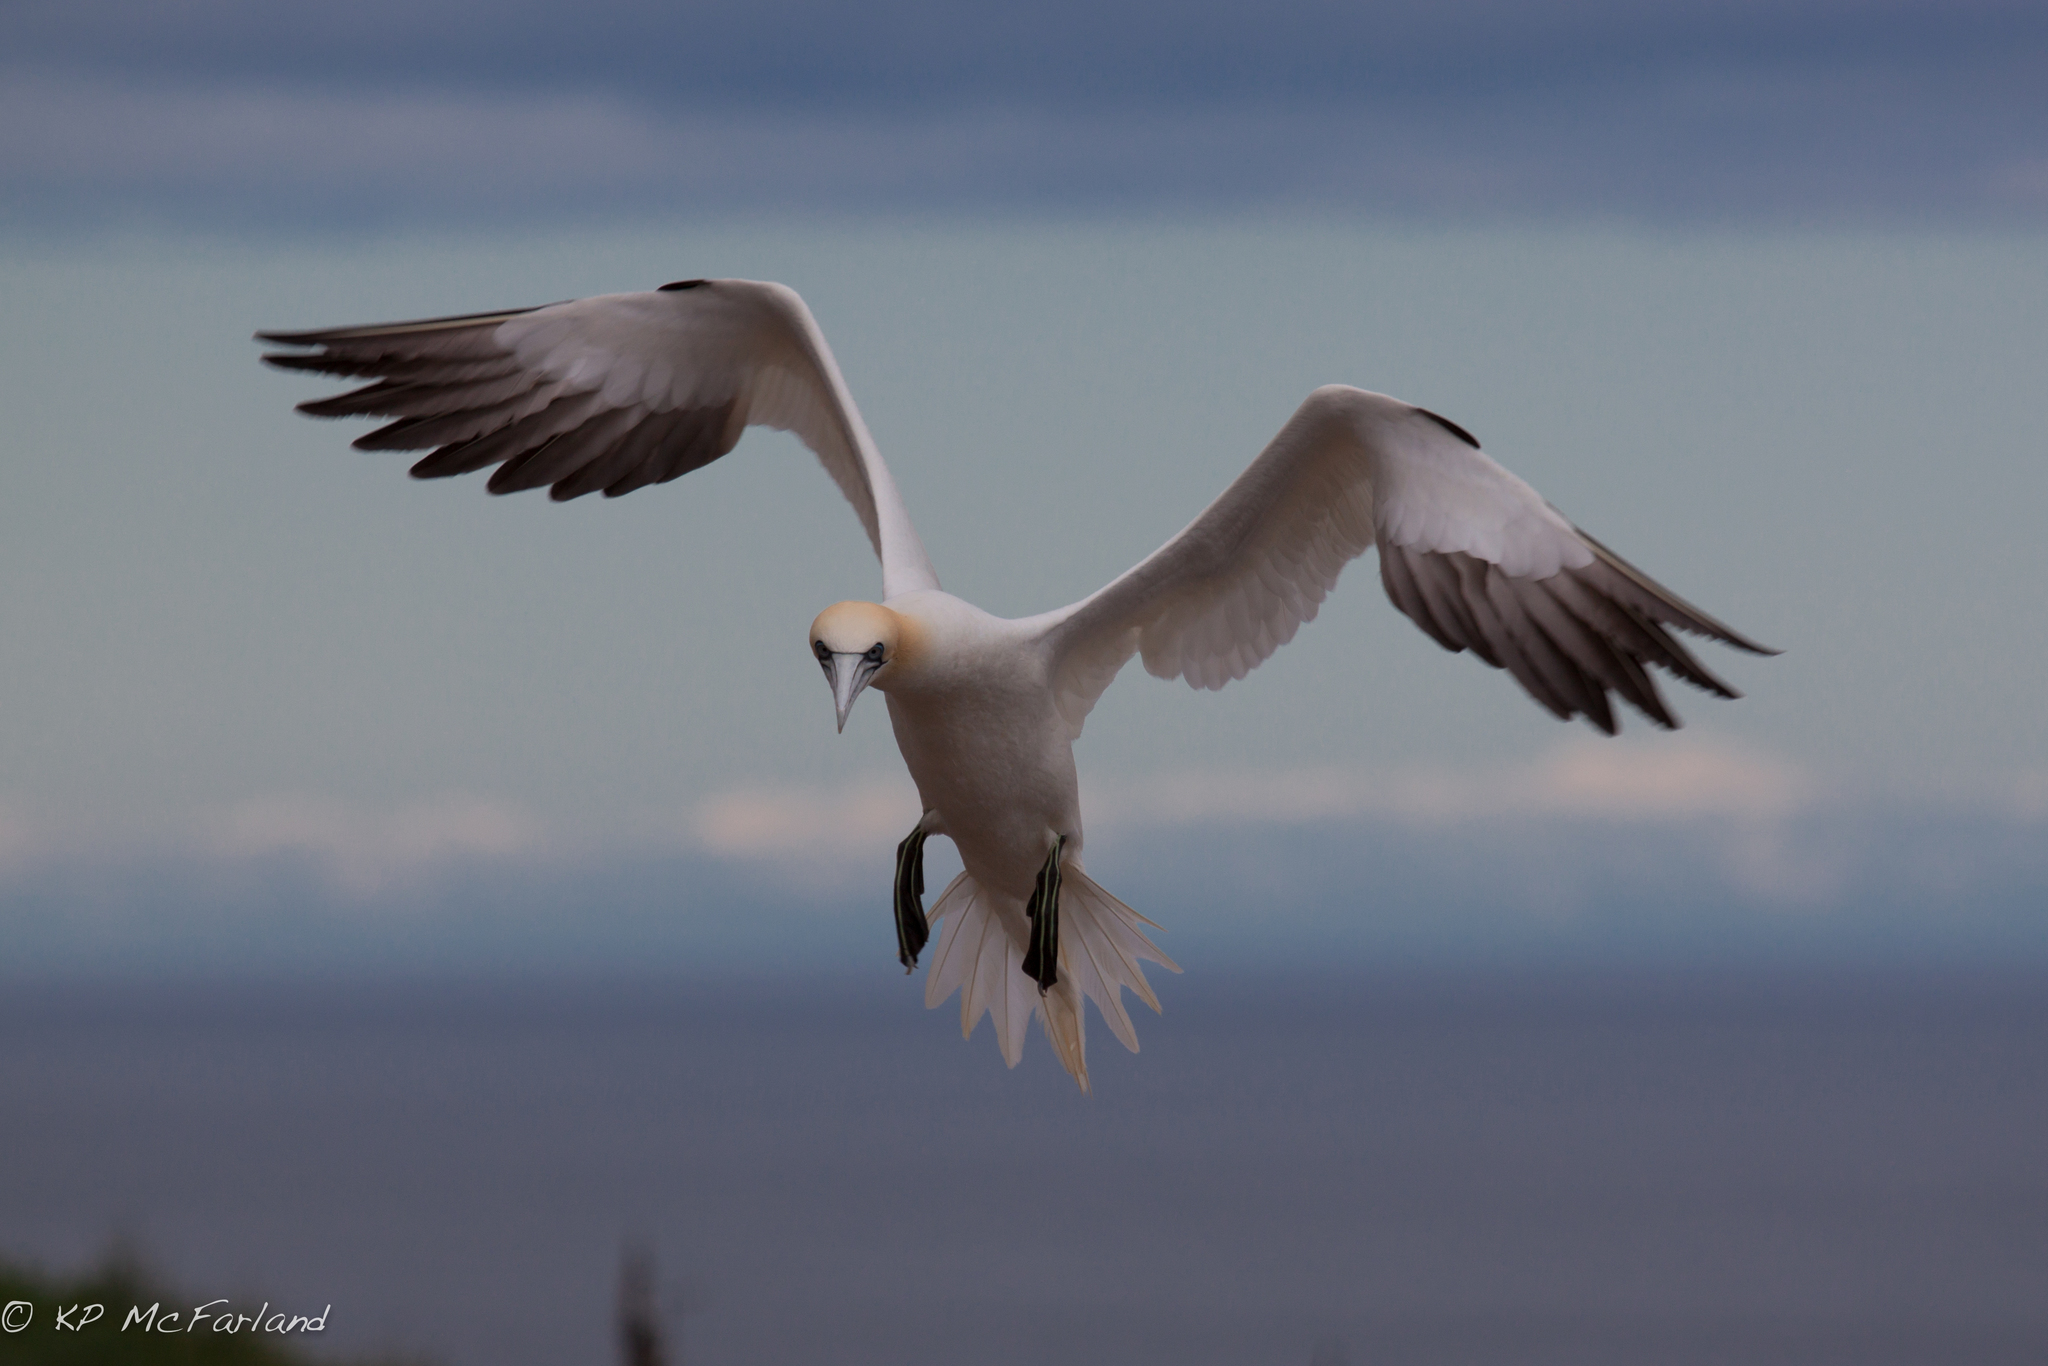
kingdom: Animalia
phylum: Chordata
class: Aves
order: Suliformes
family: Sulidae
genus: Morus
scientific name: Morus bassanus
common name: Northern gannet
